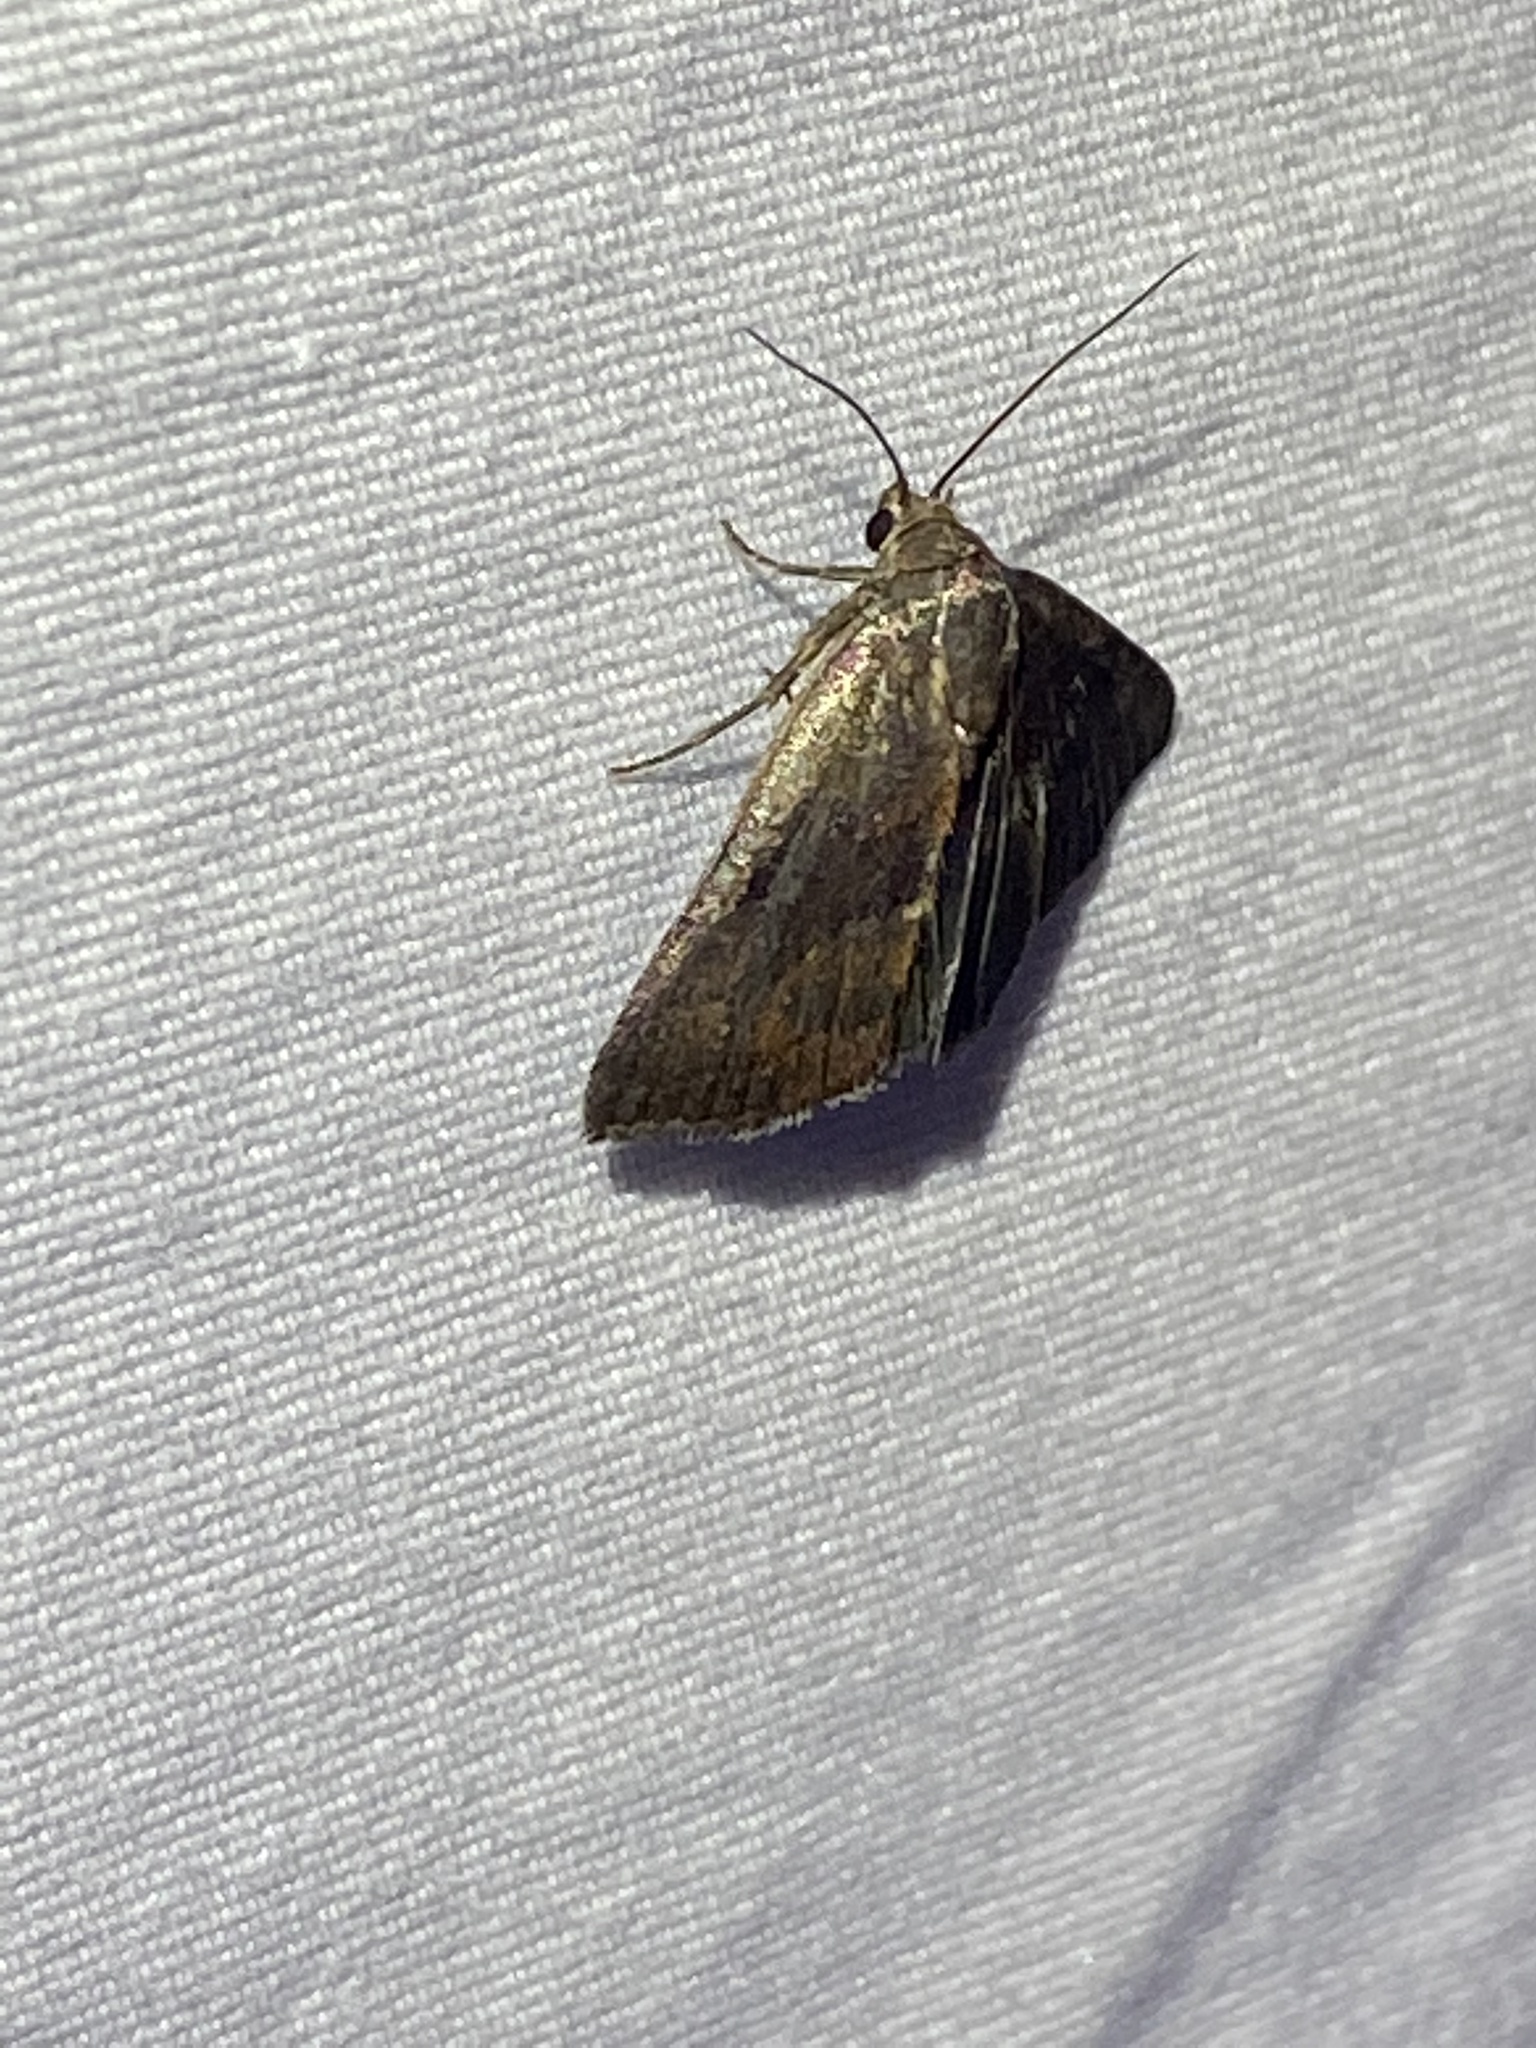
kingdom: Animalia
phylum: Arthropoda
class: Insecta
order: Lepidoptera
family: Noctuidae
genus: Galgula
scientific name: Galgula partita
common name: Wedgeling
